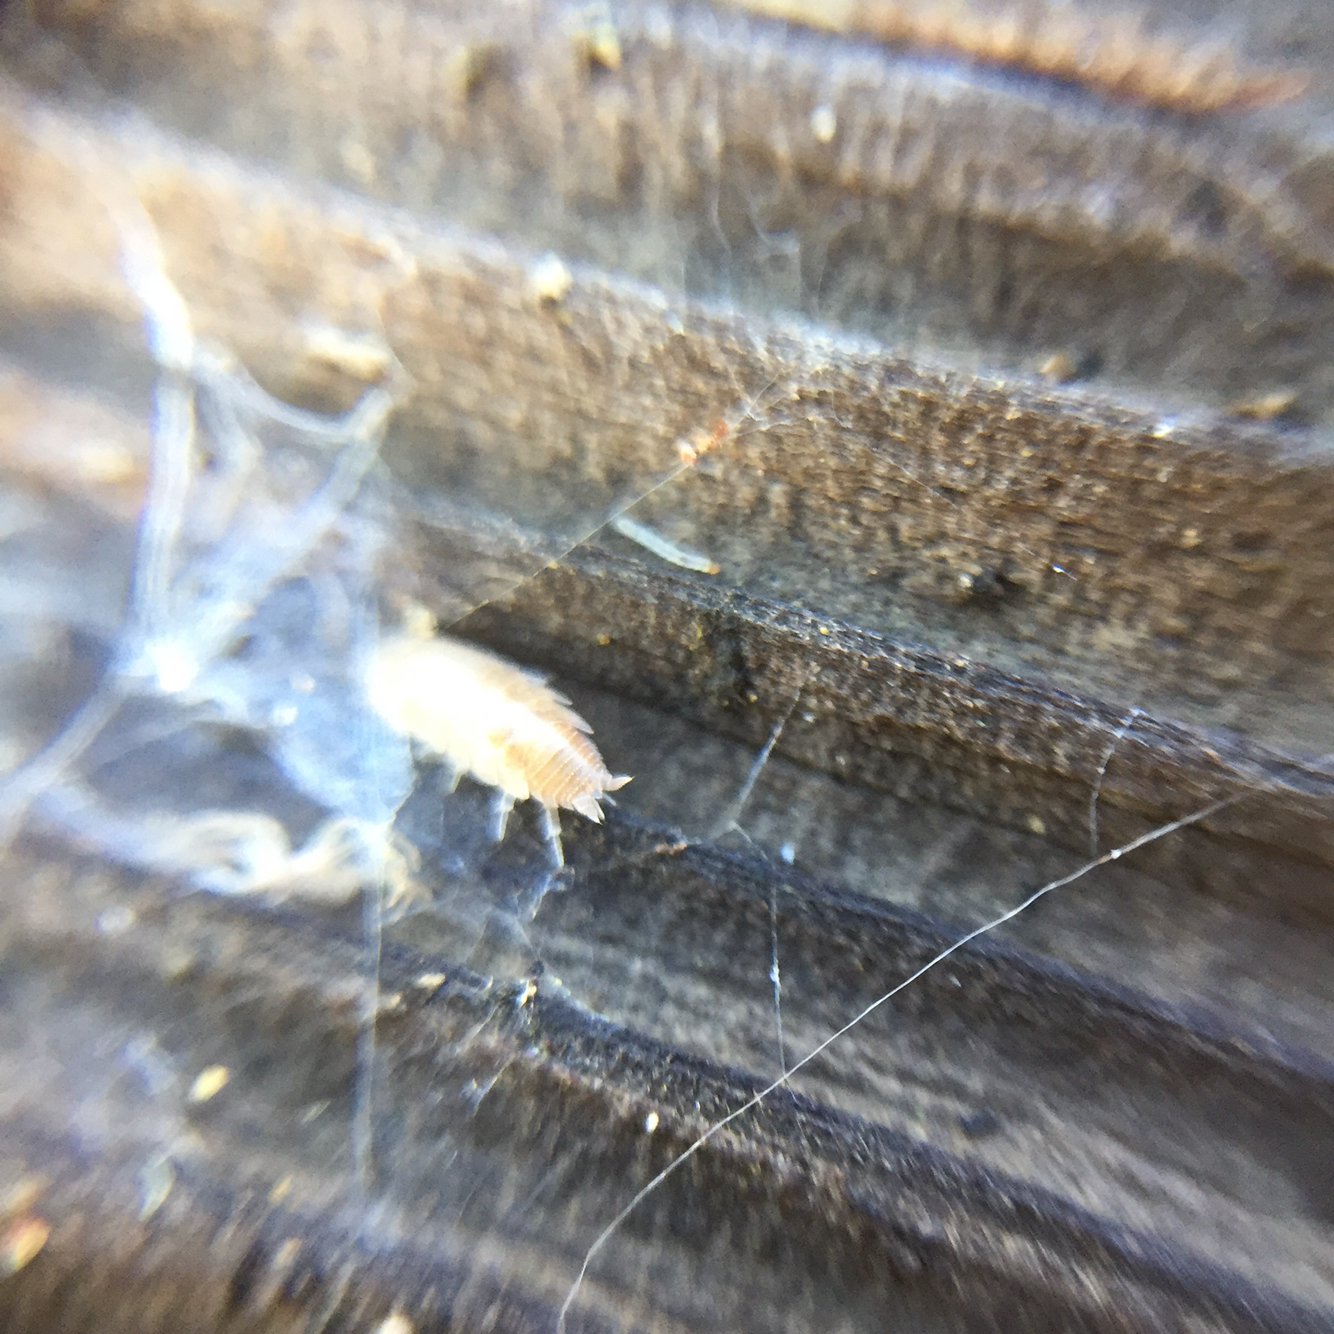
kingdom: Animalia
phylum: Arthropoda
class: Malacostraca
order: Isopoda
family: Platyarthridae
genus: Niambia
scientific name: Niambia capensis
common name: Isopod
